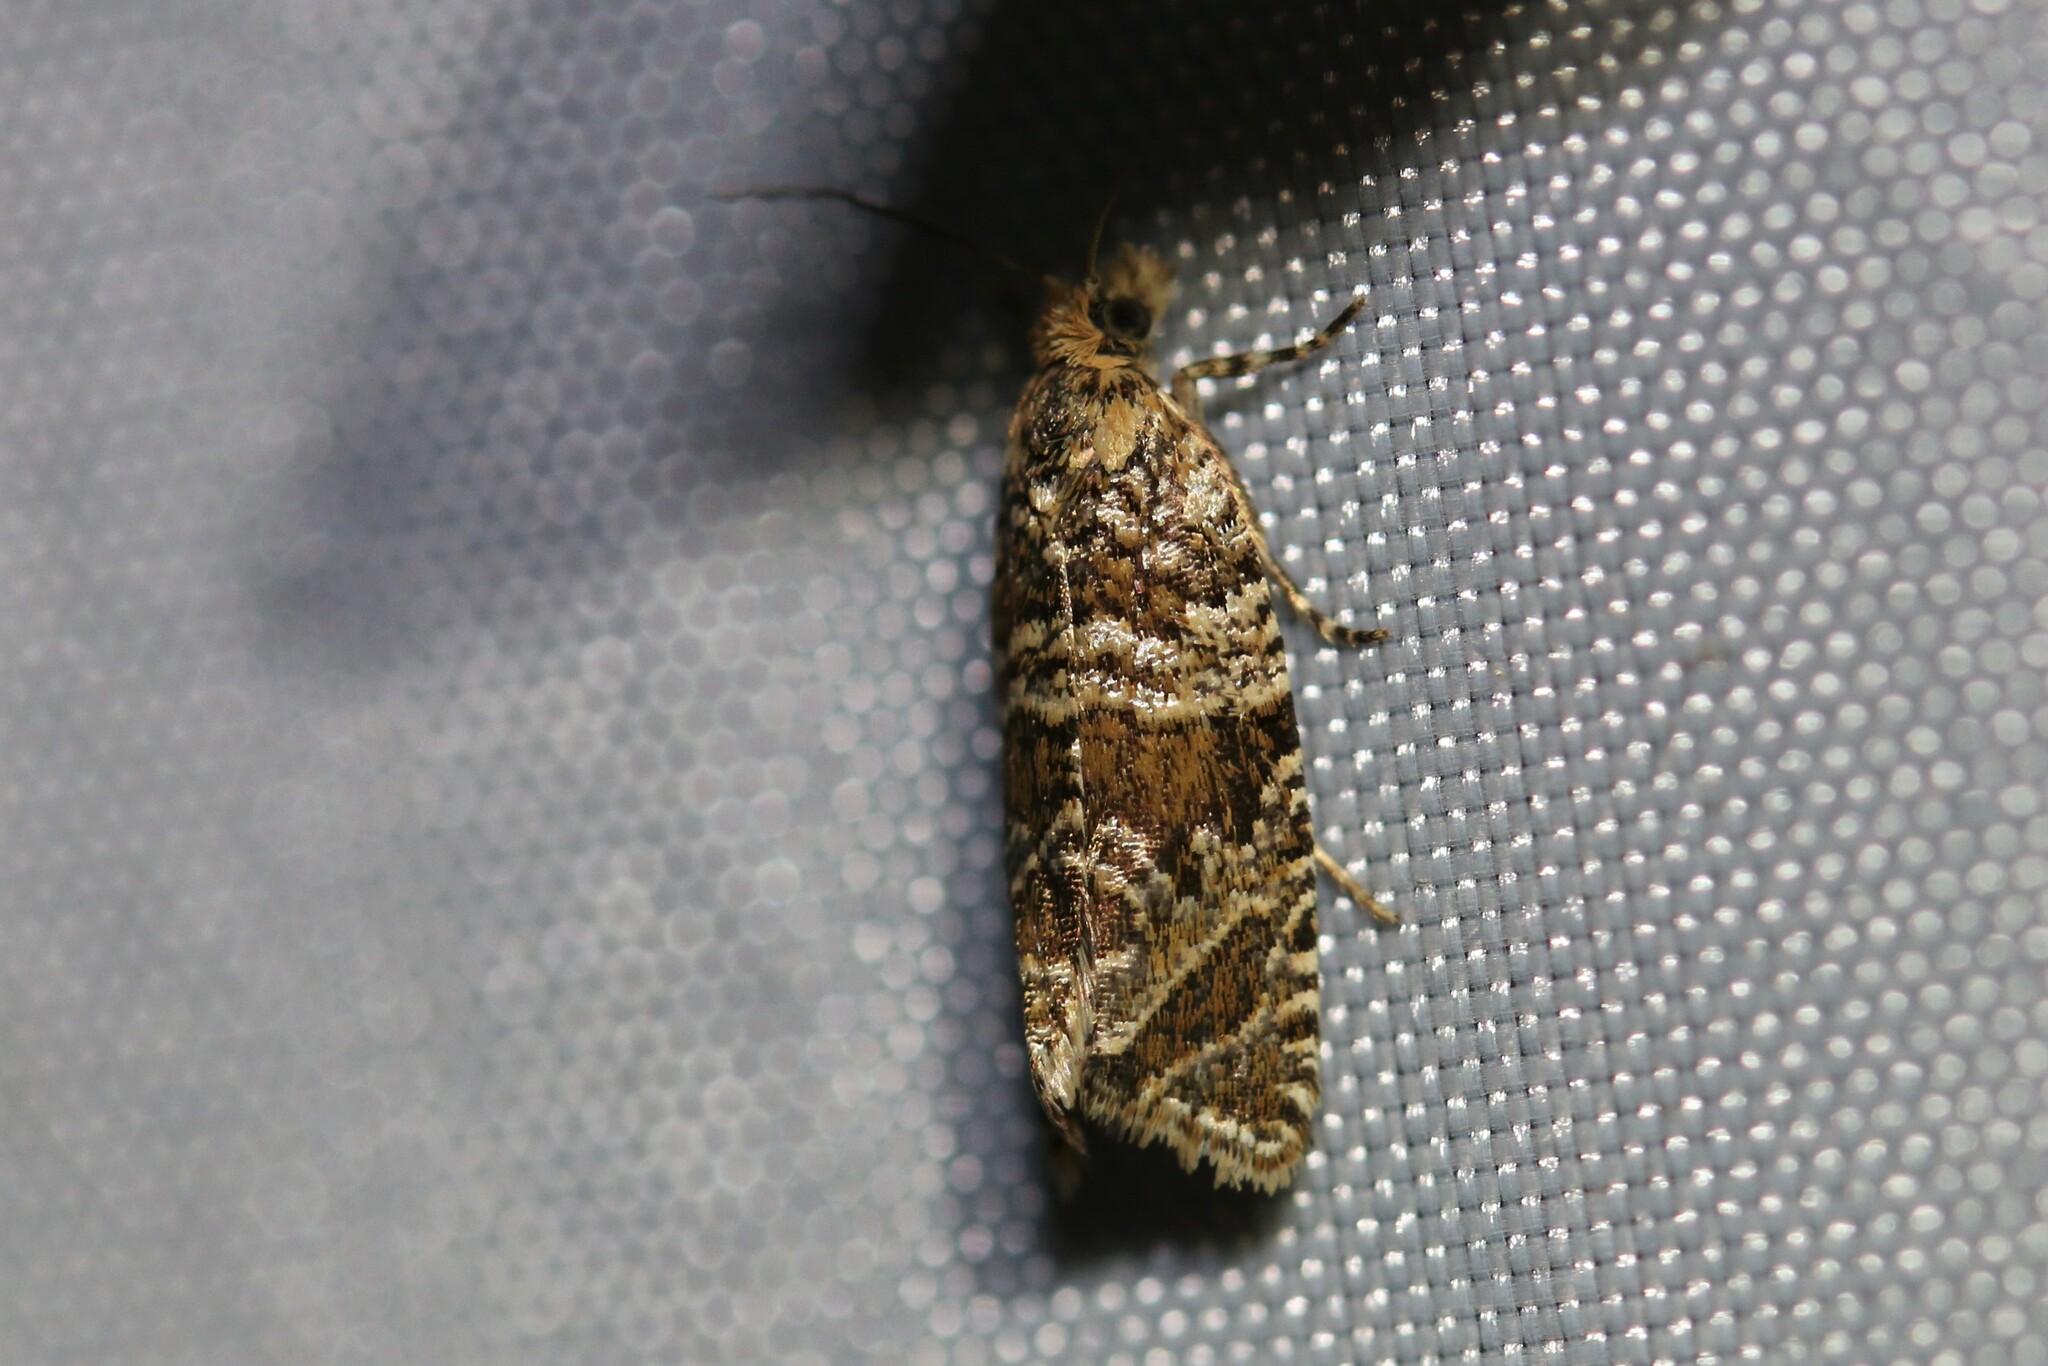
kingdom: Animalia
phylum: Arthropoda
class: Insecta
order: Lepidoptera
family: Tortricidae
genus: Syricoris
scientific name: Syricoris rivulana
